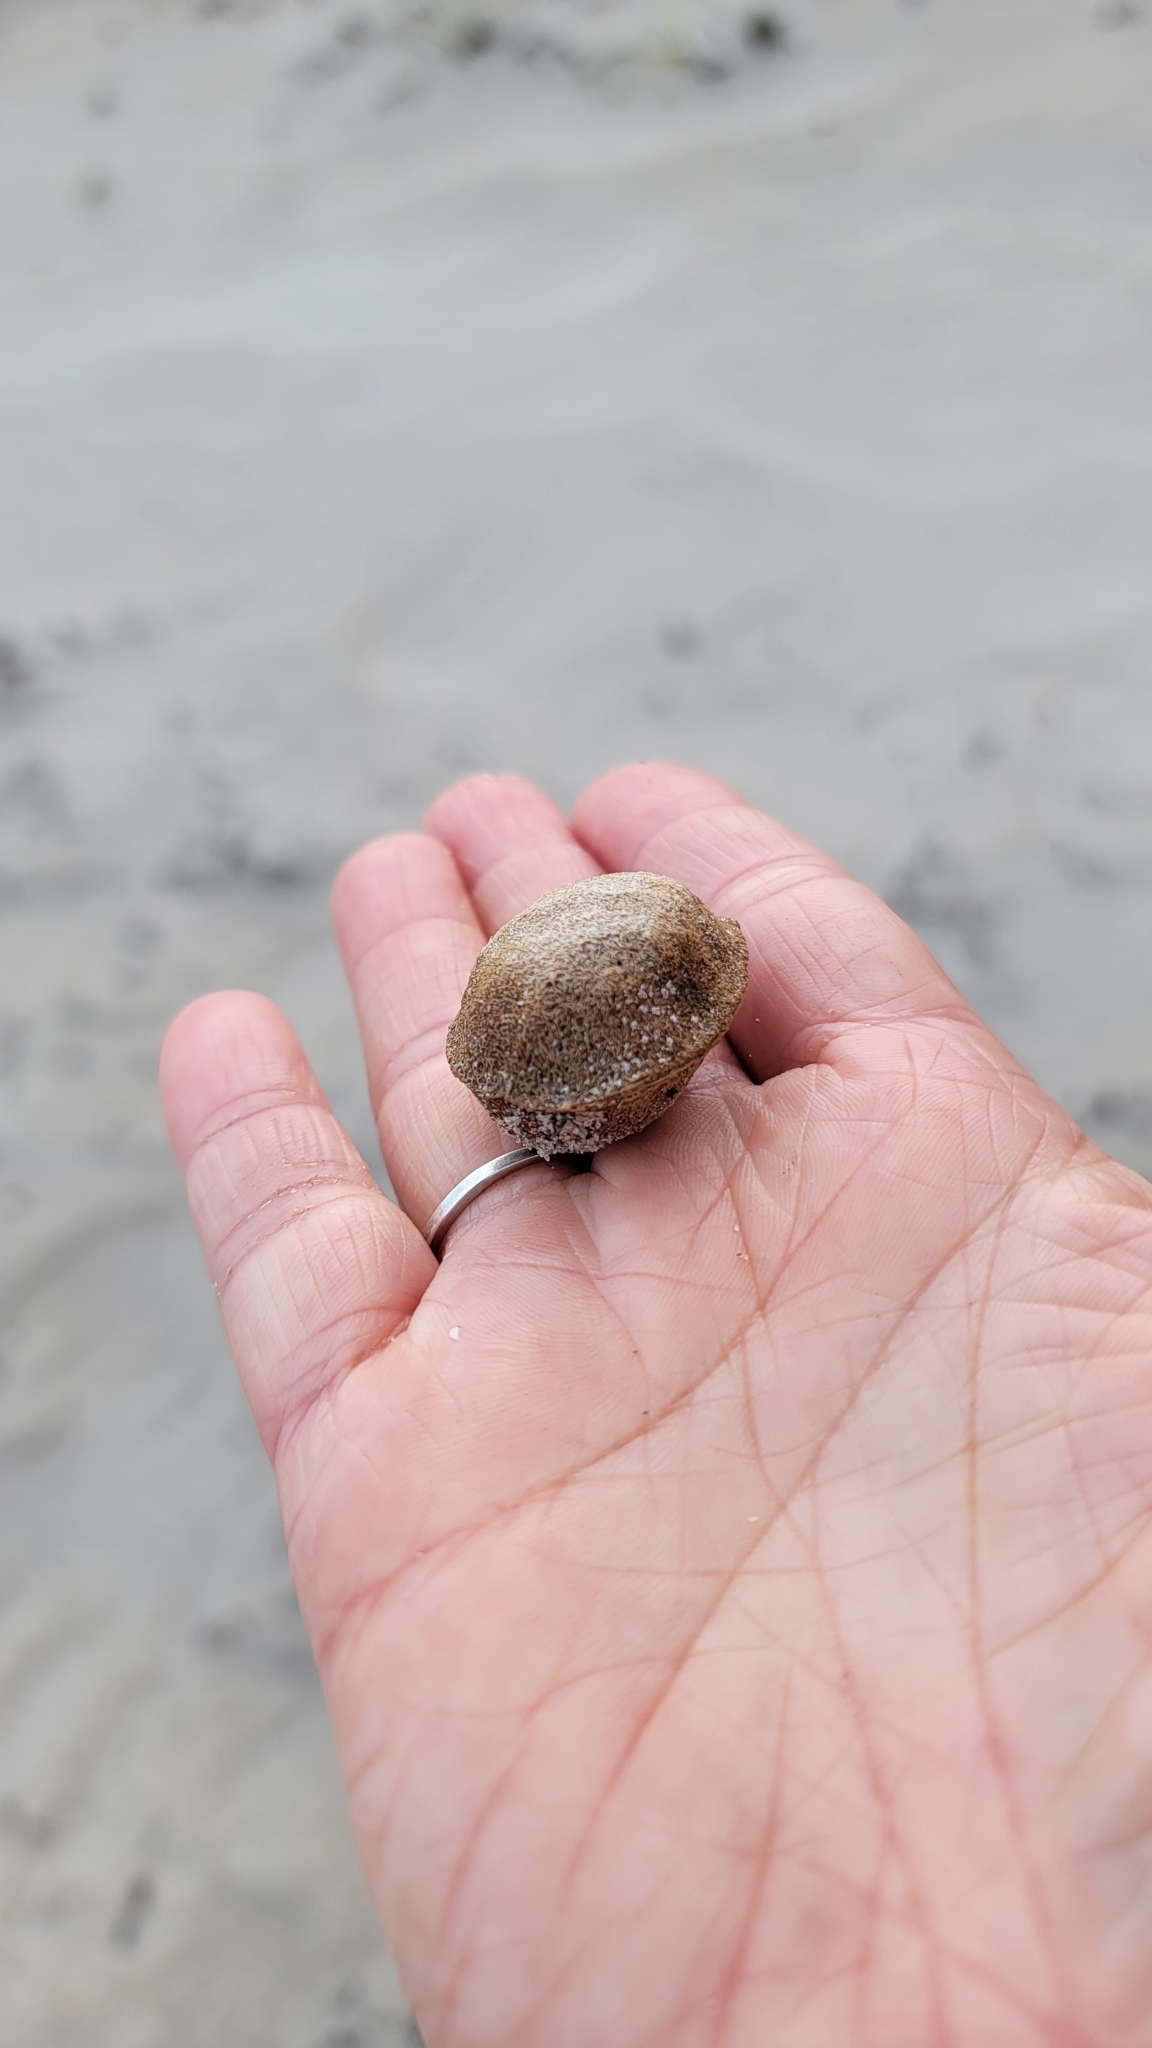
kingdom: Plantae
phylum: Tracheophyta
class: Magnoliopsida
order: Myrtales
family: Combretaceae
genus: Terminalia
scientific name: Terminalia catappa
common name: Tropical almond
